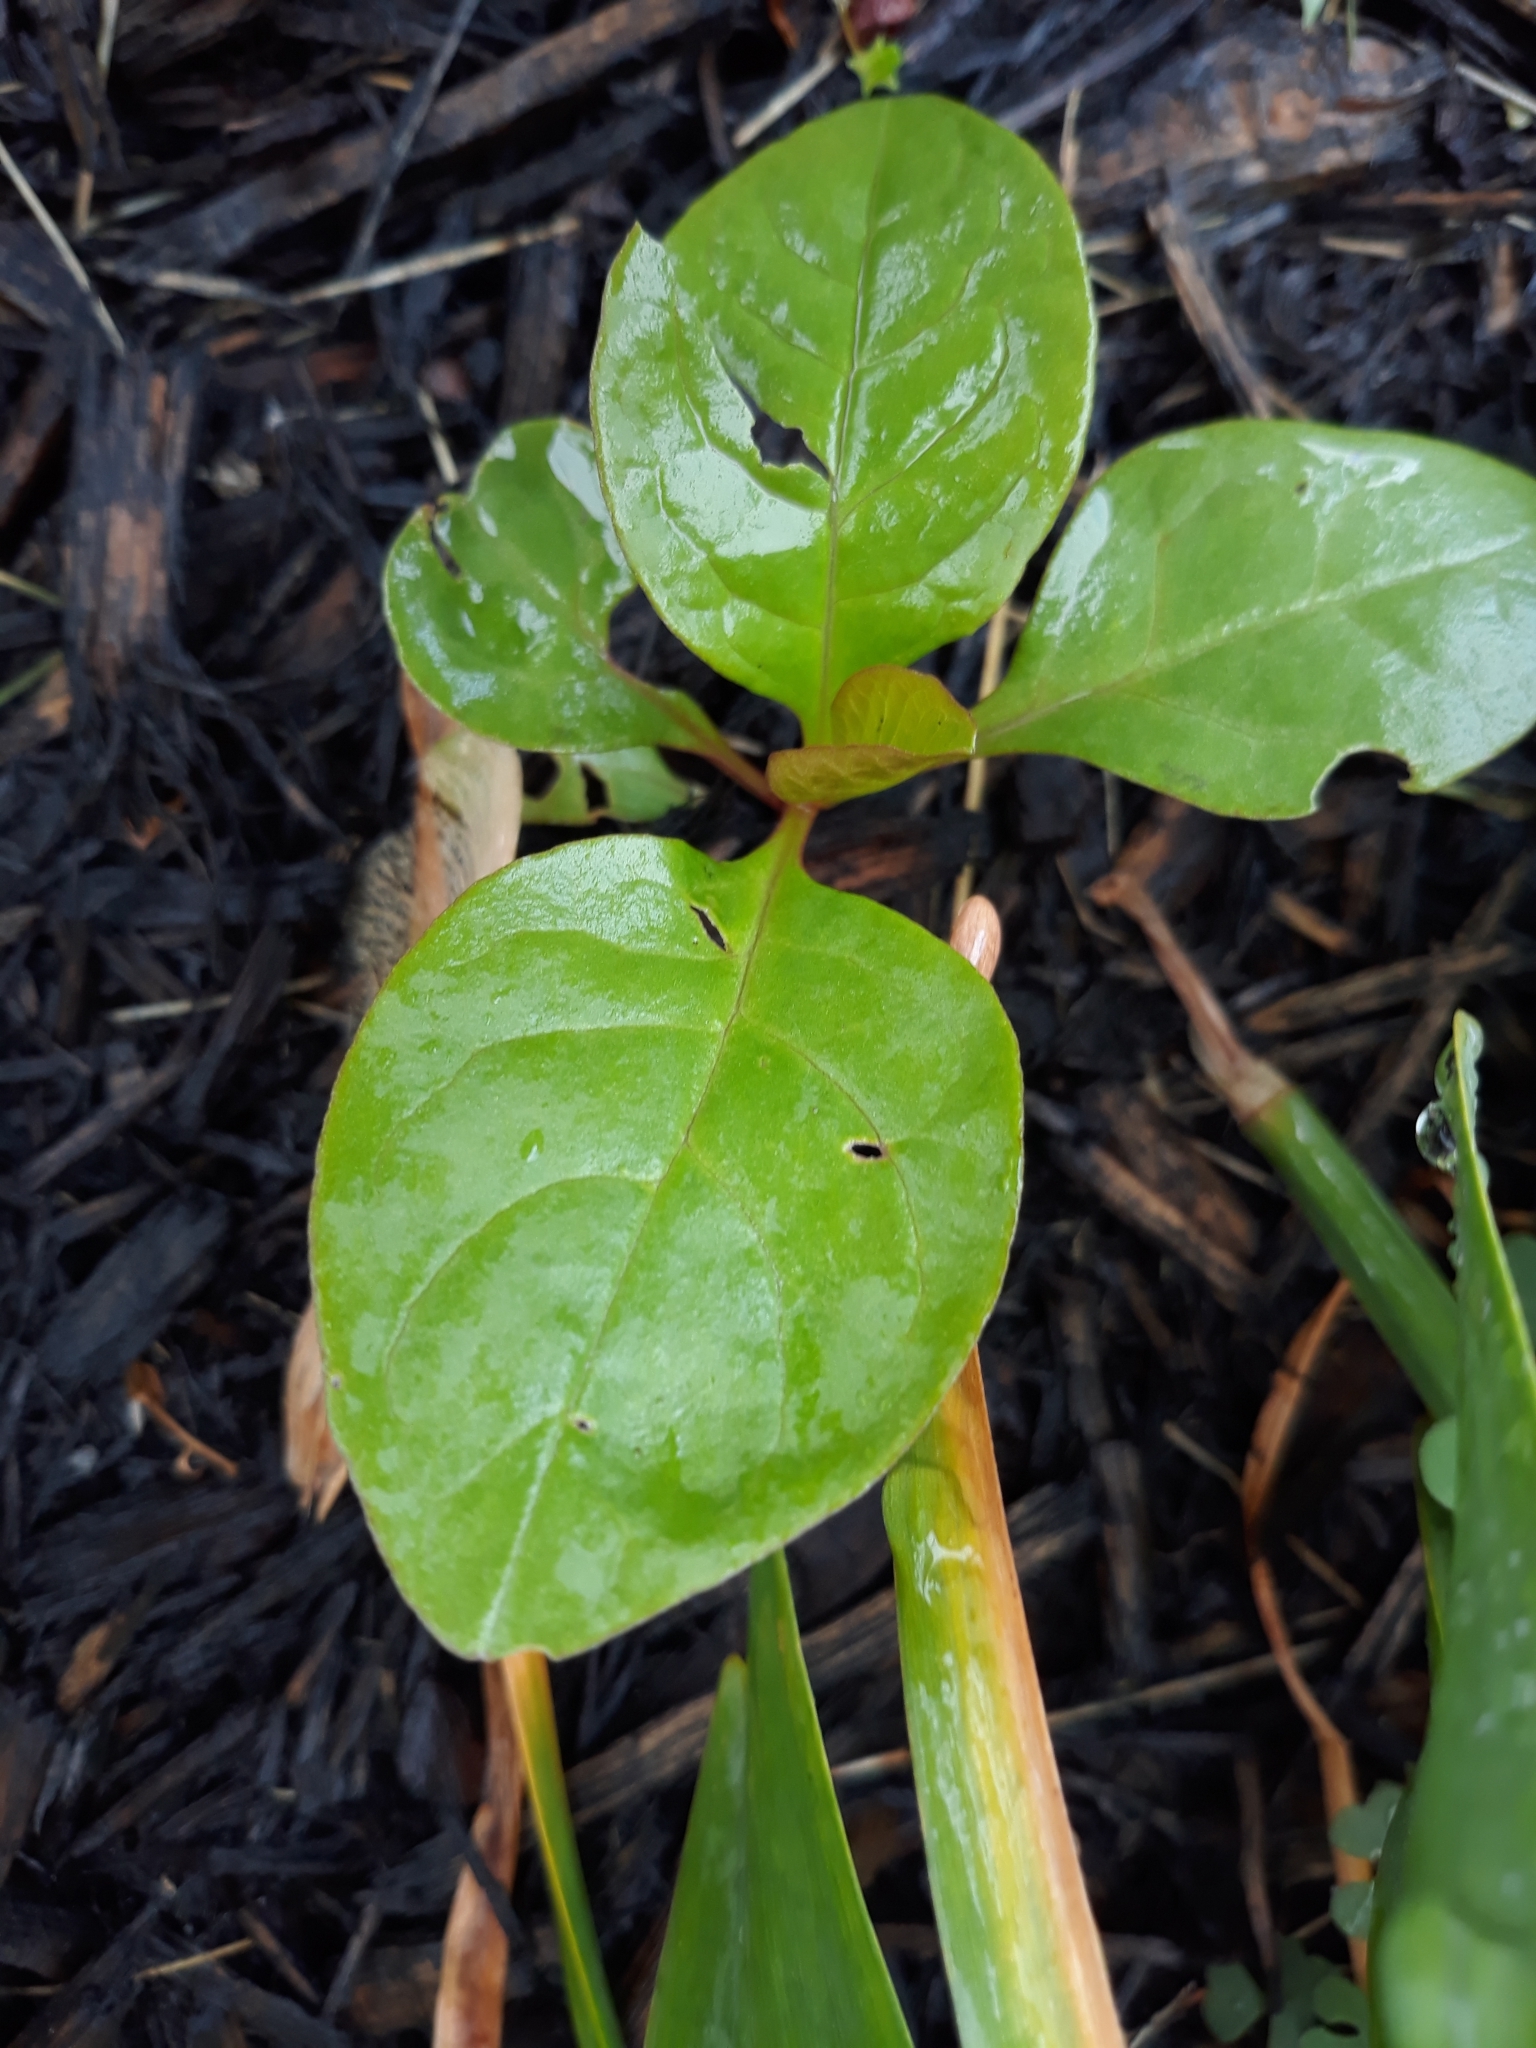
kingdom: Plantae
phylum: Tracheophyta
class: Magnoliopsida
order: Caryophyllales
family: Phytolaccaceae
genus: Phytolacca
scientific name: Phytolacca americana
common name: American pokeweed
